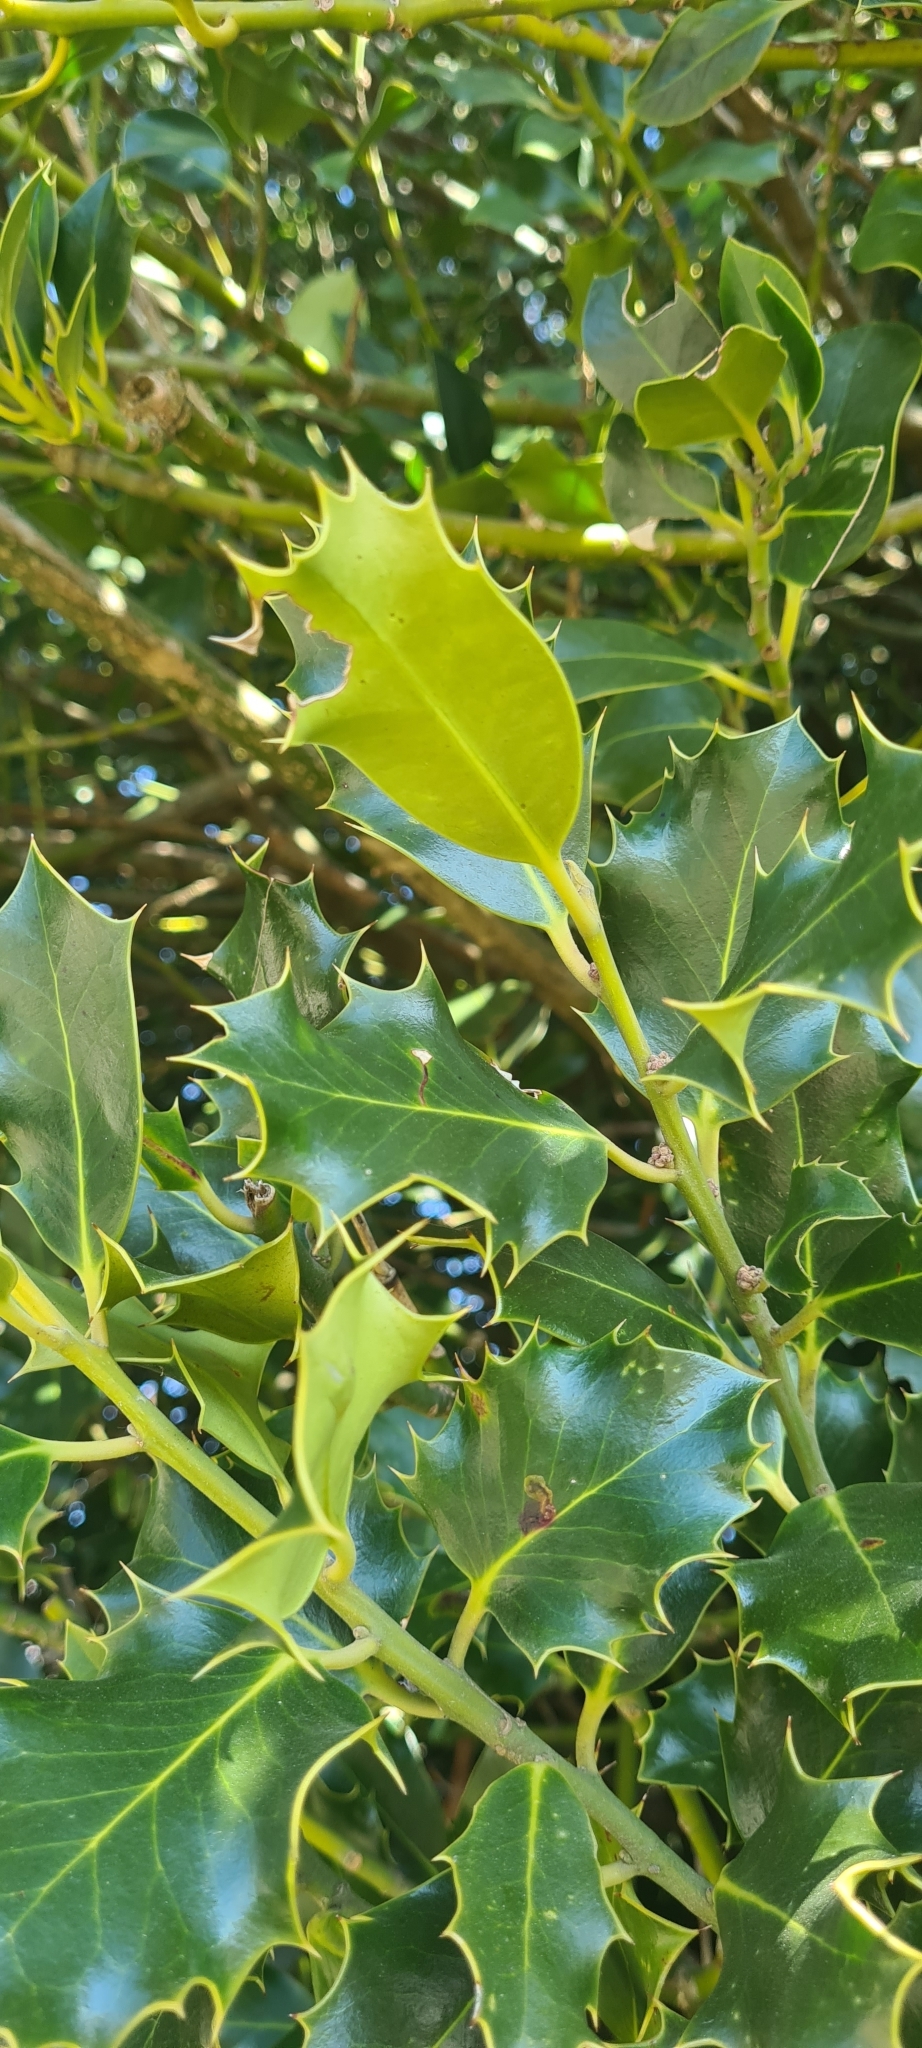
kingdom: Plantae
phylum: Tracheophyta
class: Magnoliopsida
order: Aquifoliales
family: Aquifoliaceae
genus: Ilex
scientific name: Ilex aquifolium
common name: English holly
